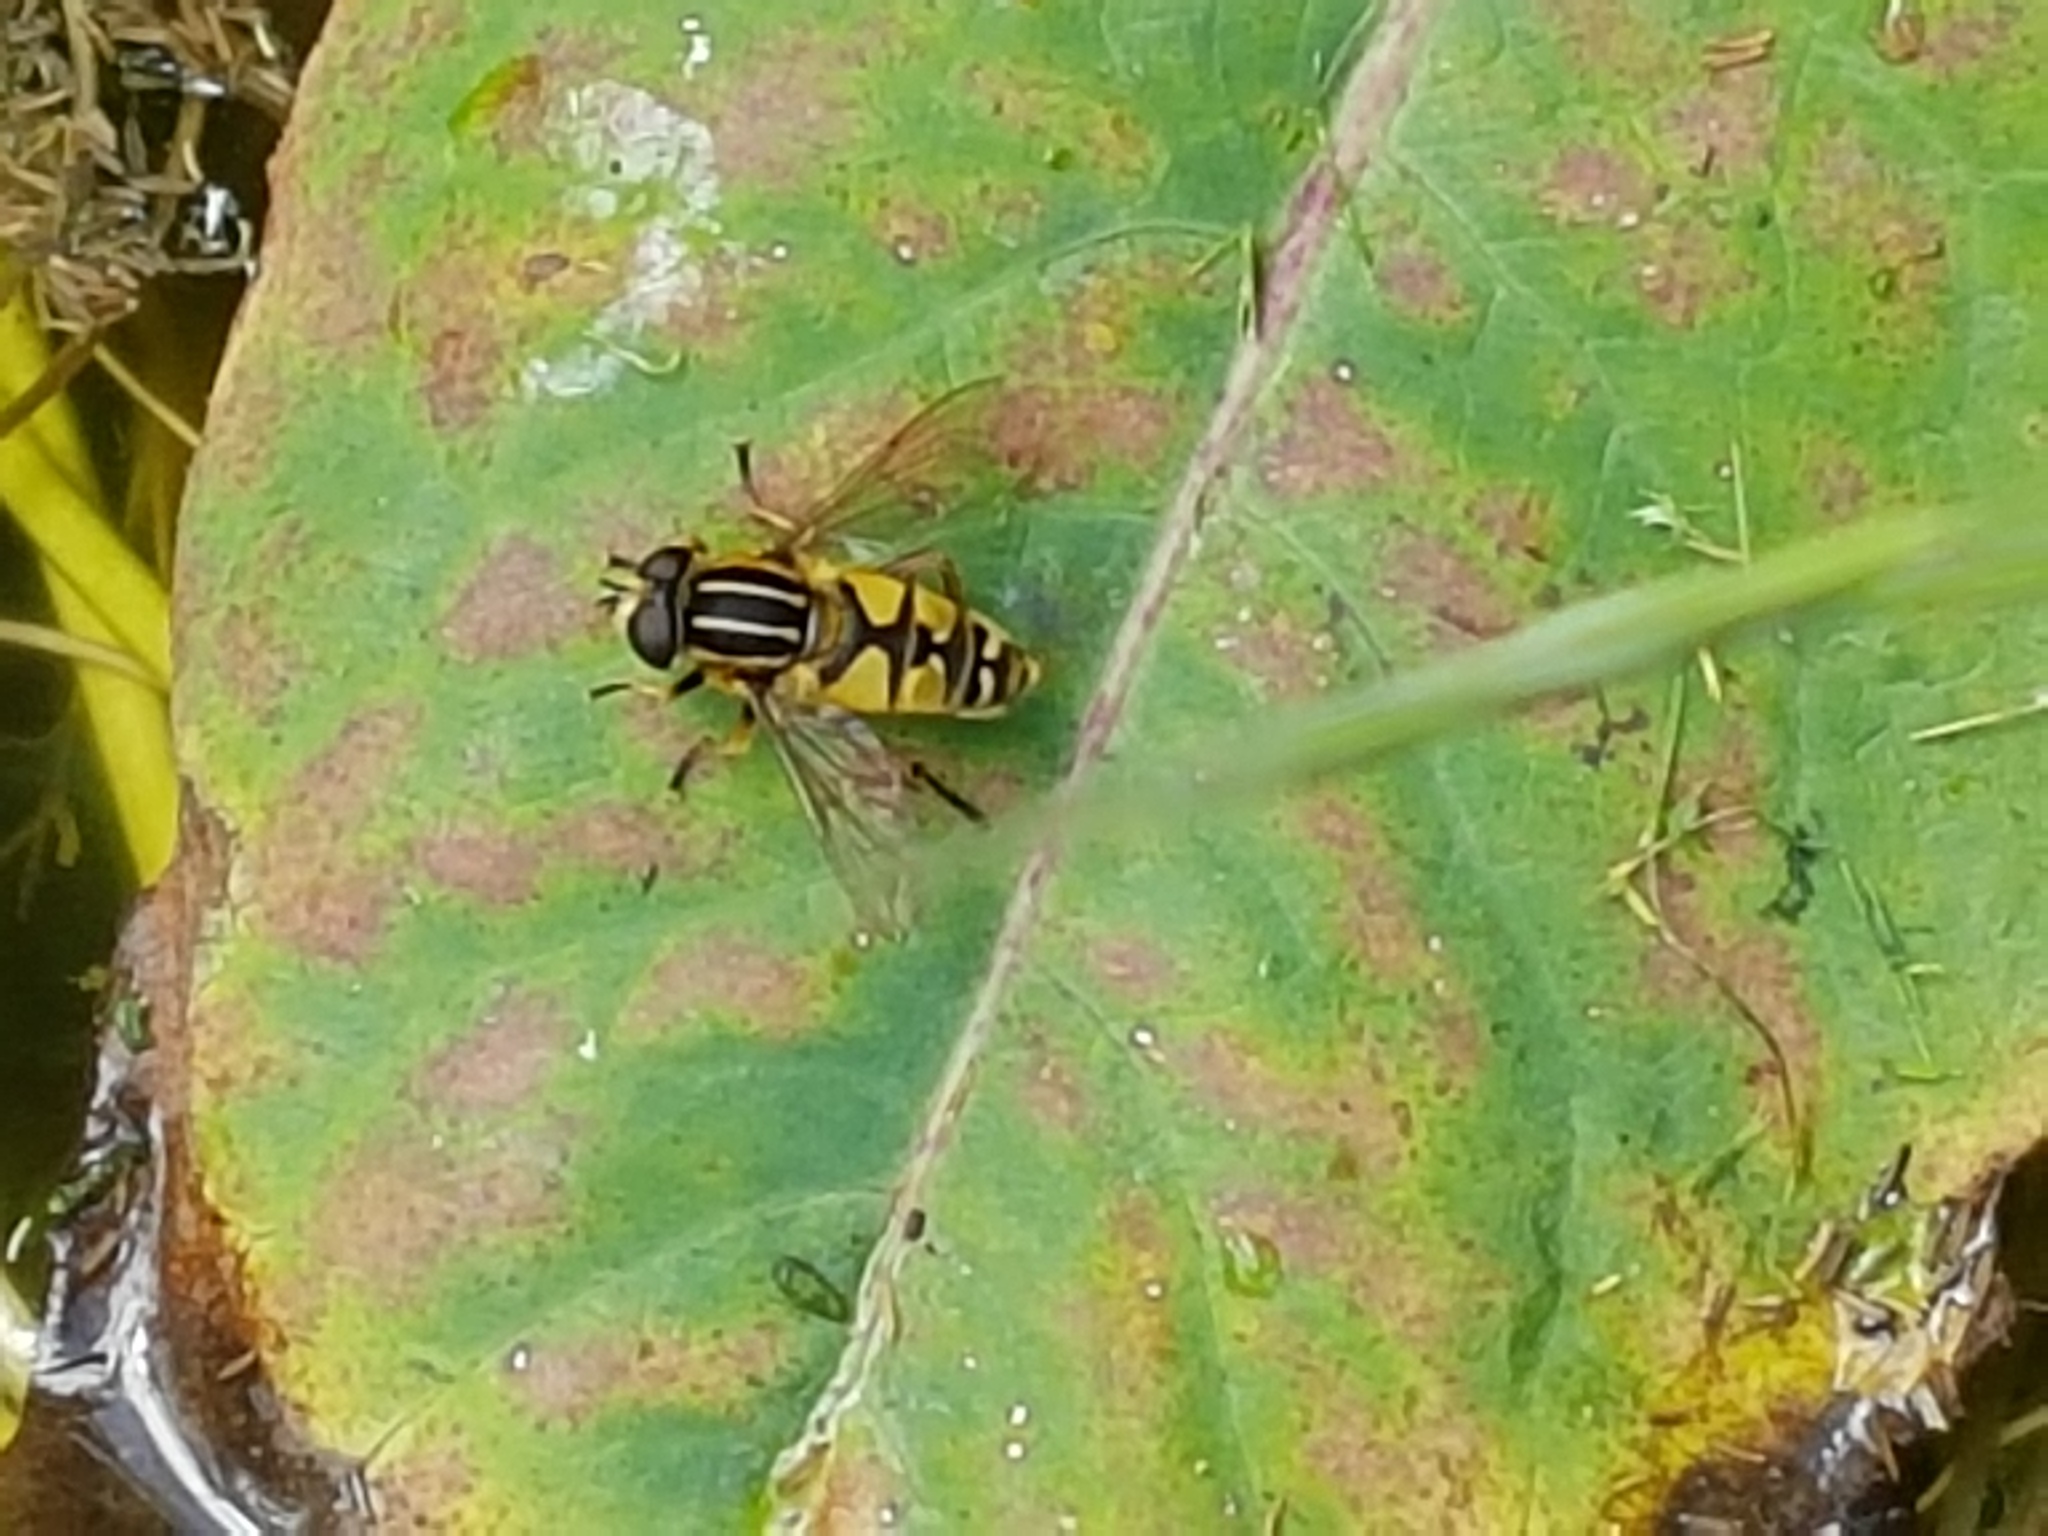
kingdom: Animalia
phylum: Arthropoda
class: Insecta
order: Diptera
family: Syrphidae
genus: Helophilus
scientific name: Helophilus trivittatus
